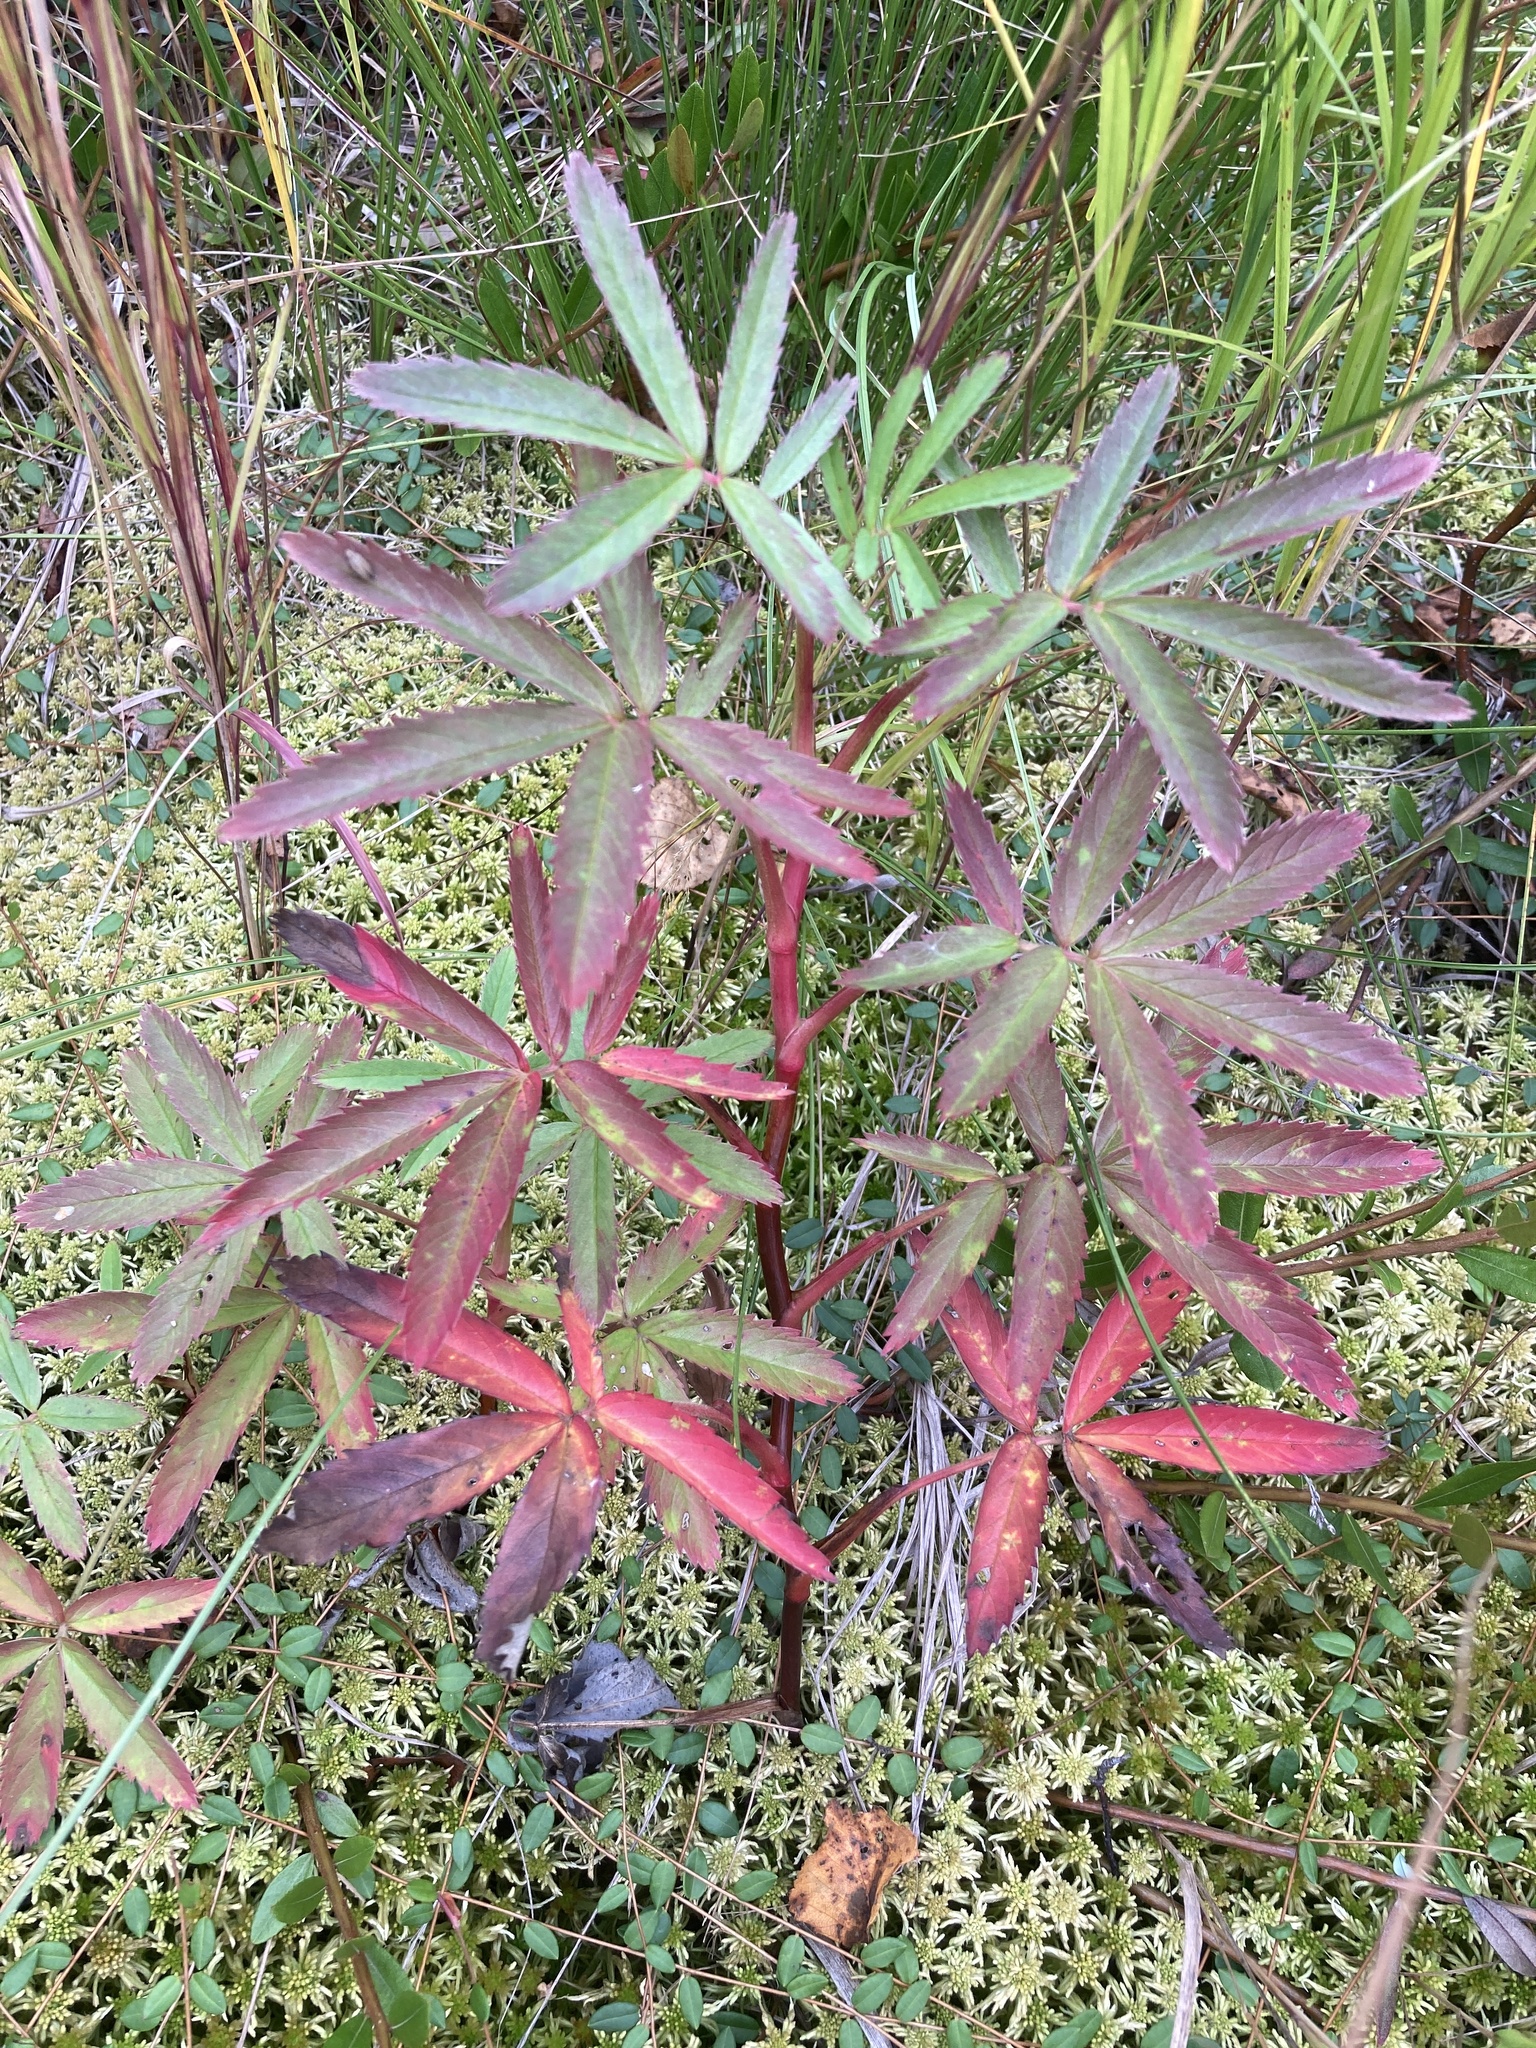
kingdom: Plantae
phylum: Tracheophyta
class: Magnoliopsida
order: Rosales
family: Rosaceae
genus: Comarum
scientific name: Comarum palustre
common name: Marsh cinquefoil
